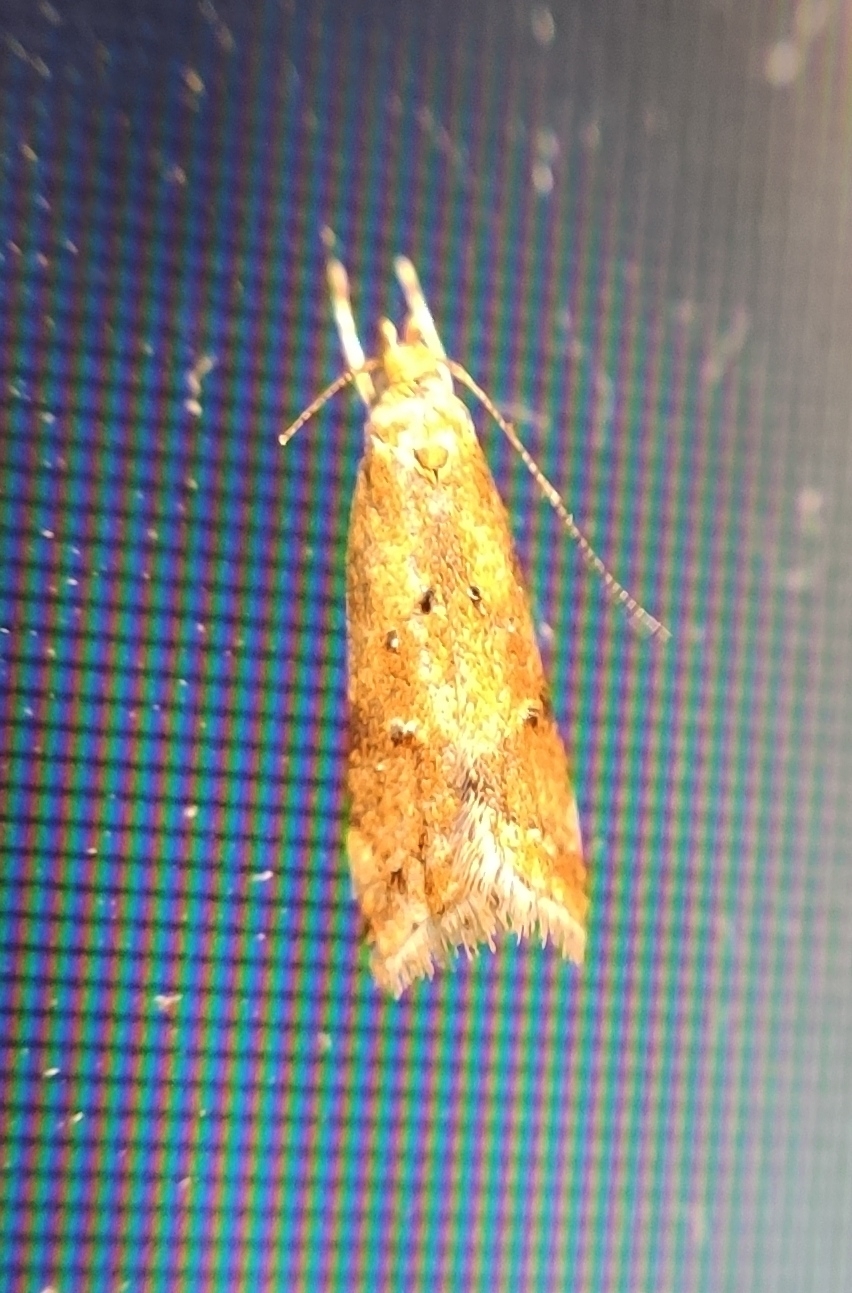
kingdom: Animalia
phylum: Arthropoda
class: Insecta
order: Lepidoptera
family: Gelechiidae
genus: Brachmia
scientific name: Brachmia blandella
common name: Gorse crest
